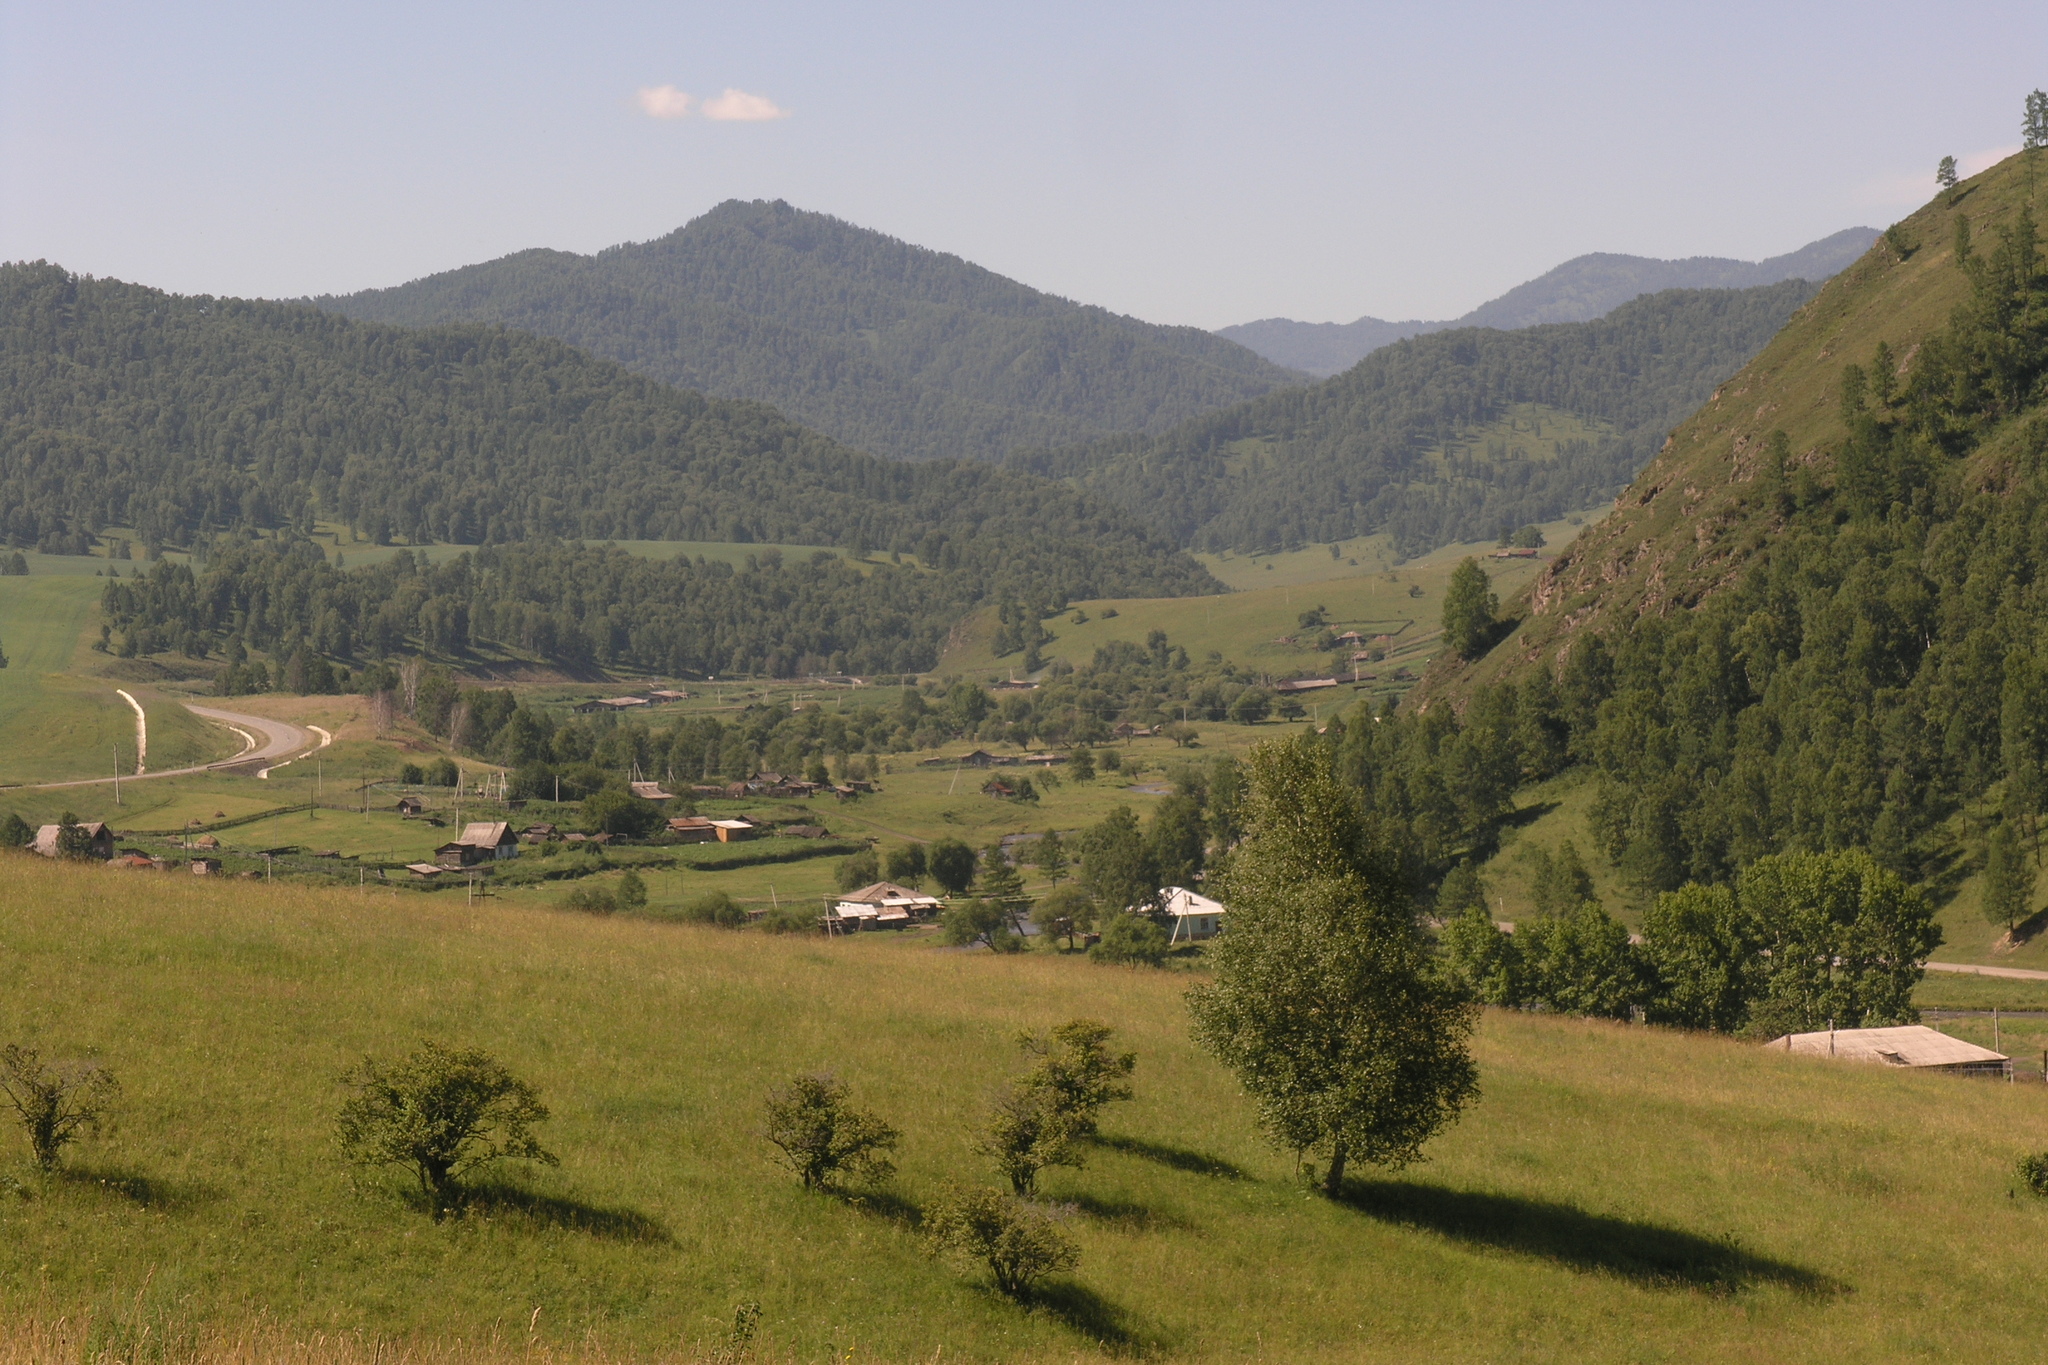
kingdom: Plantae
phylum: Tracheophyta
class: Magnoliopsida
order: Fagales
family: Betulaceae
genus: Betula
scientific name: Betula pendula
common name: Silver birch
